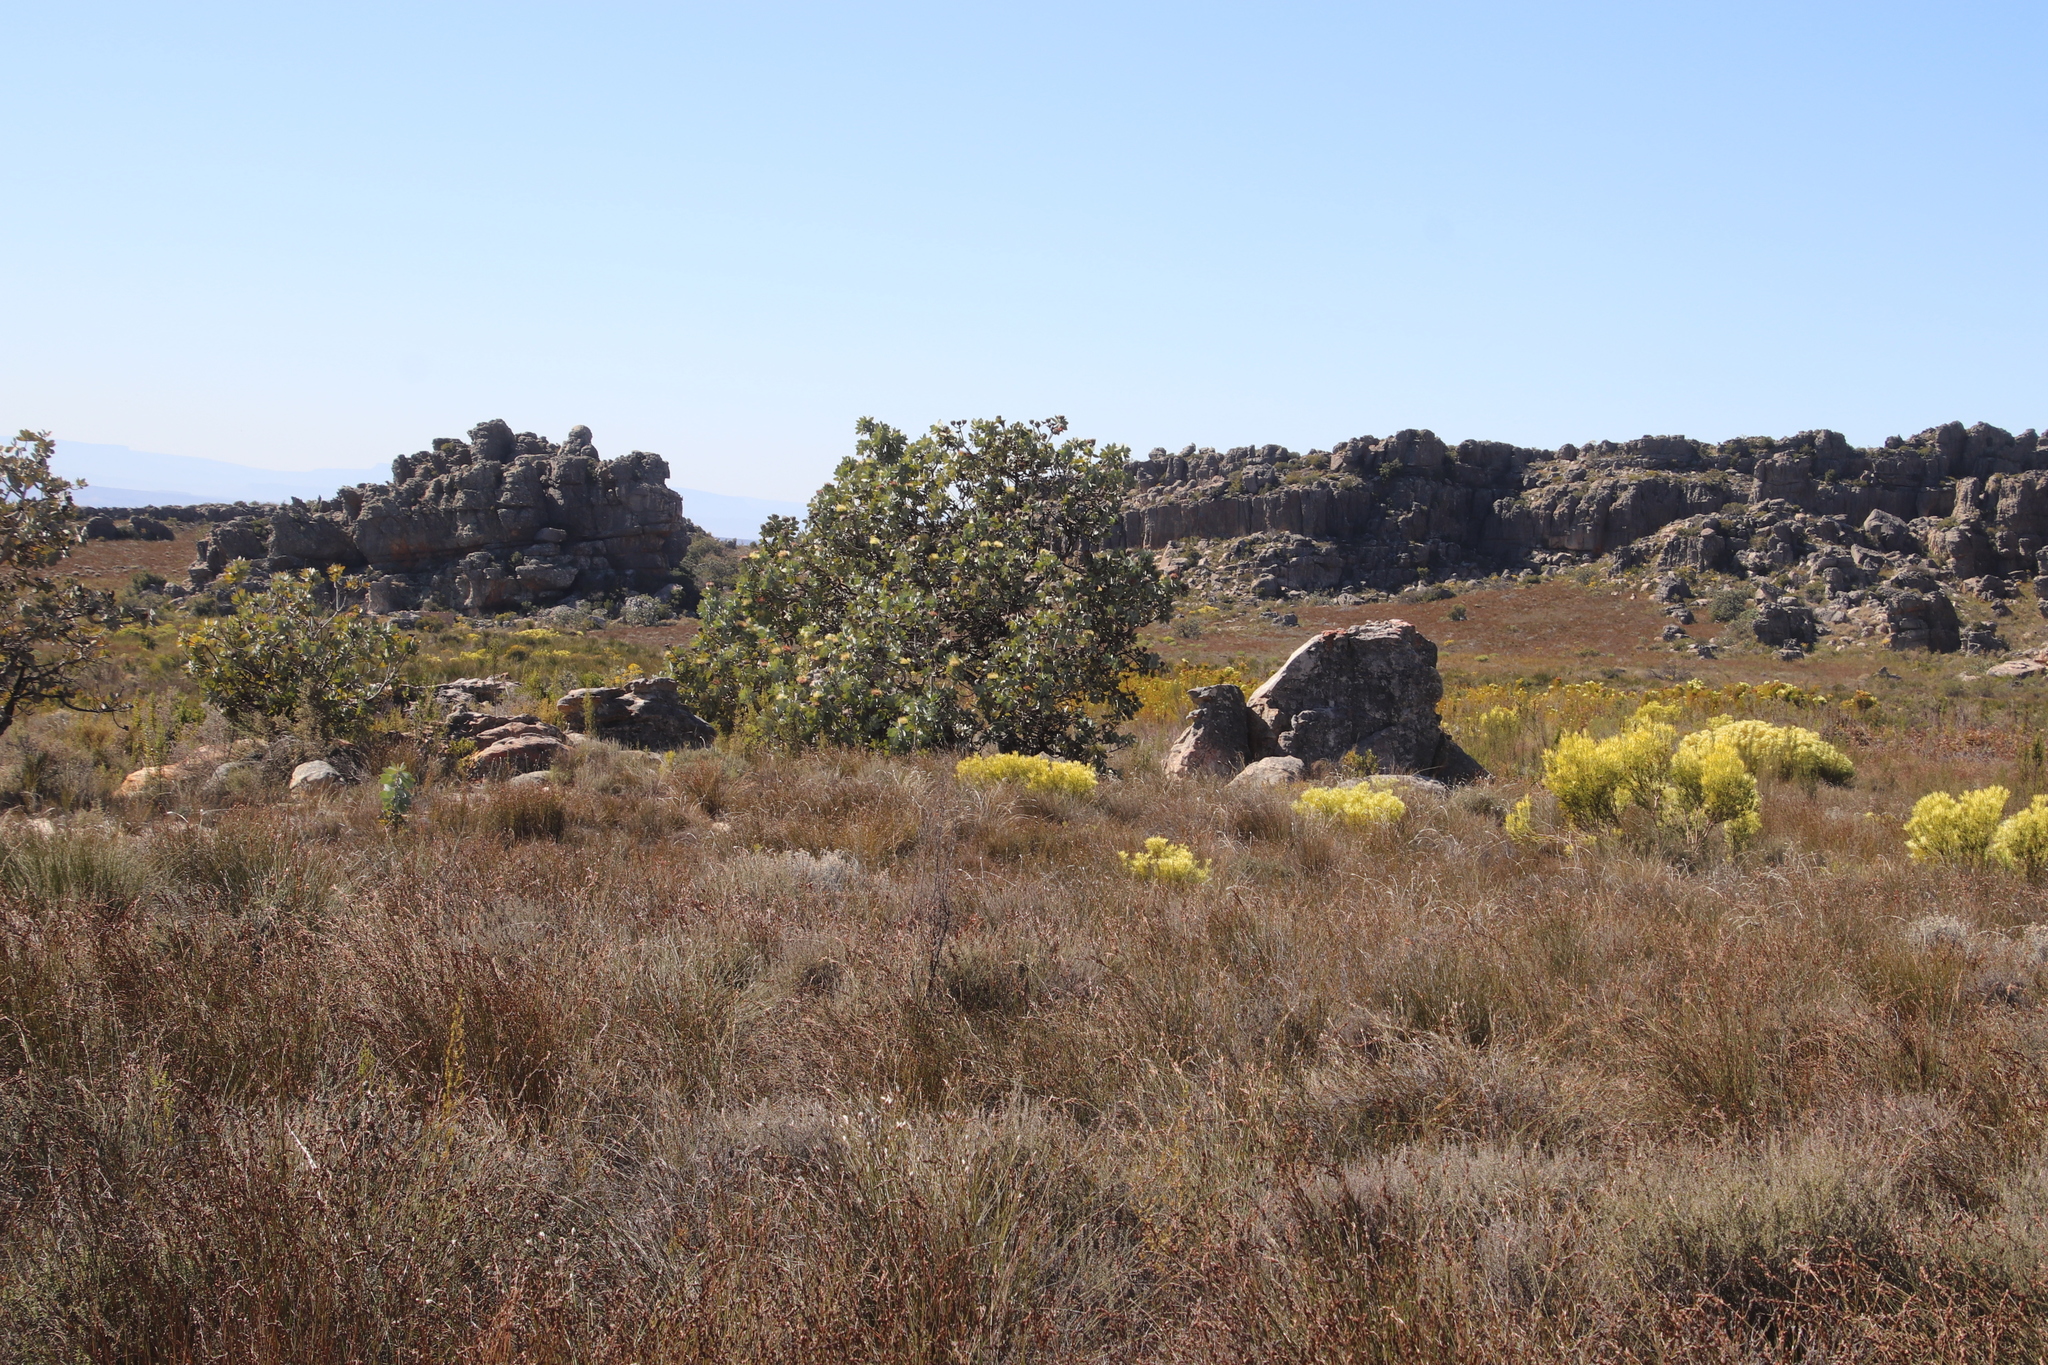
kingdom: Plantae
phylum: Tracheophyta
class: Magnoliopsida
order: Proteales
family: Proteaceae
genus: Protea
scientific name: Protea nitida
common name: Tree protea
